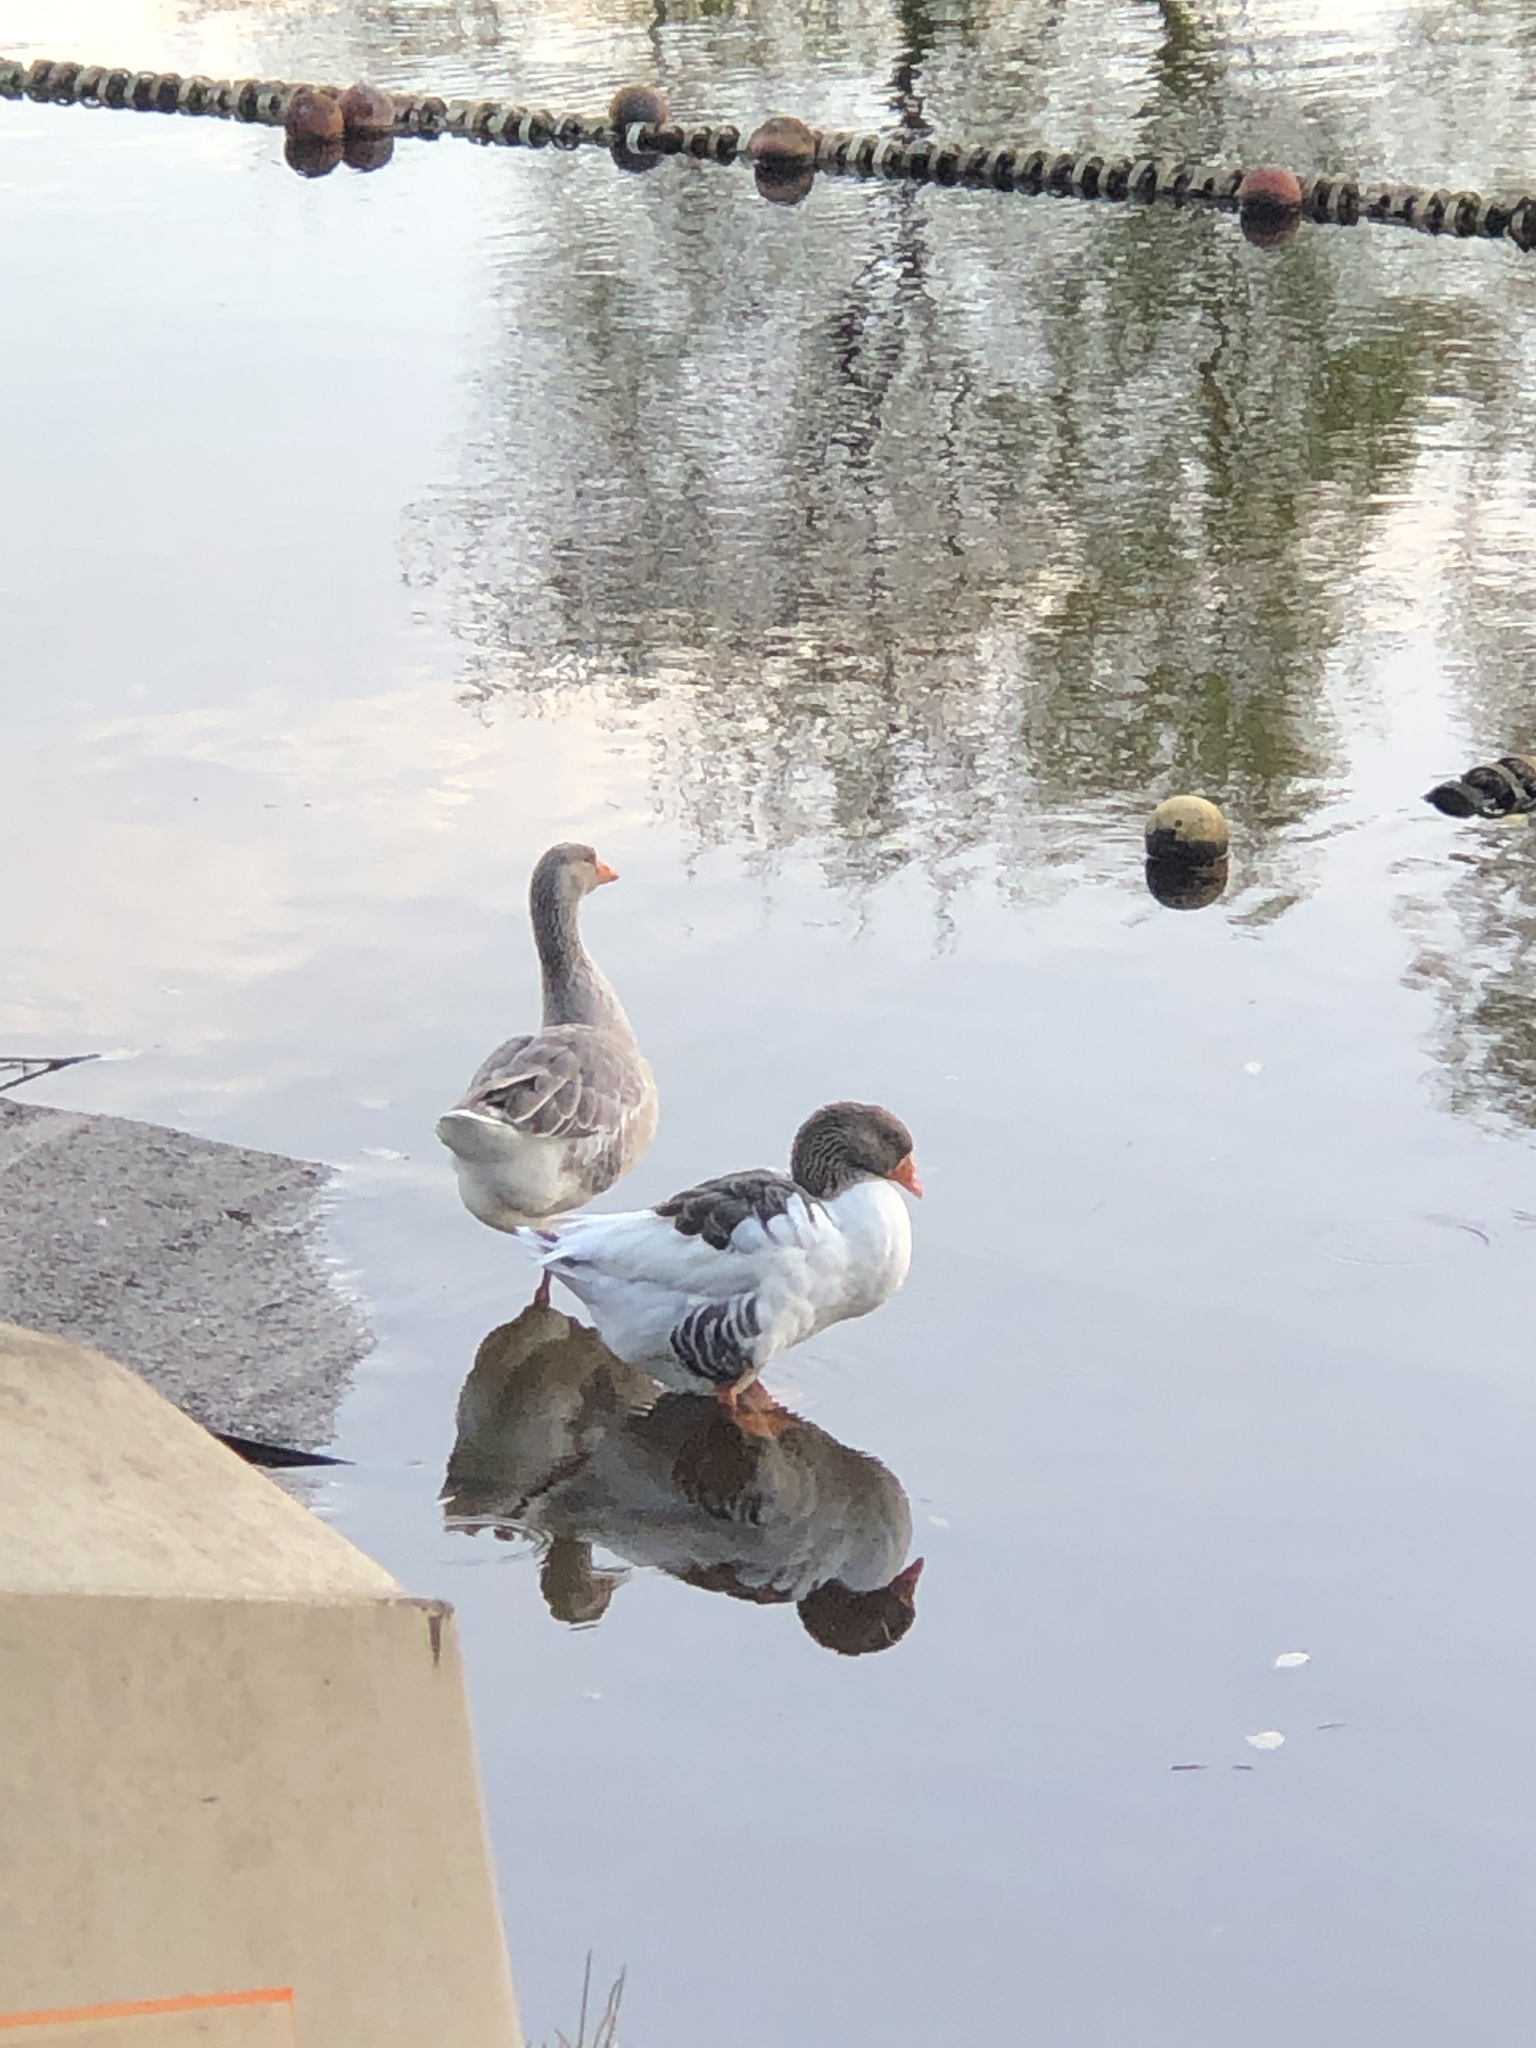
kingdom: Animalia
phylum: Chordata
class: Aves
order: Anseriformes
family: Anatidae
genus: Anser
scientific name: Anser anser
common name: Greylag goose
